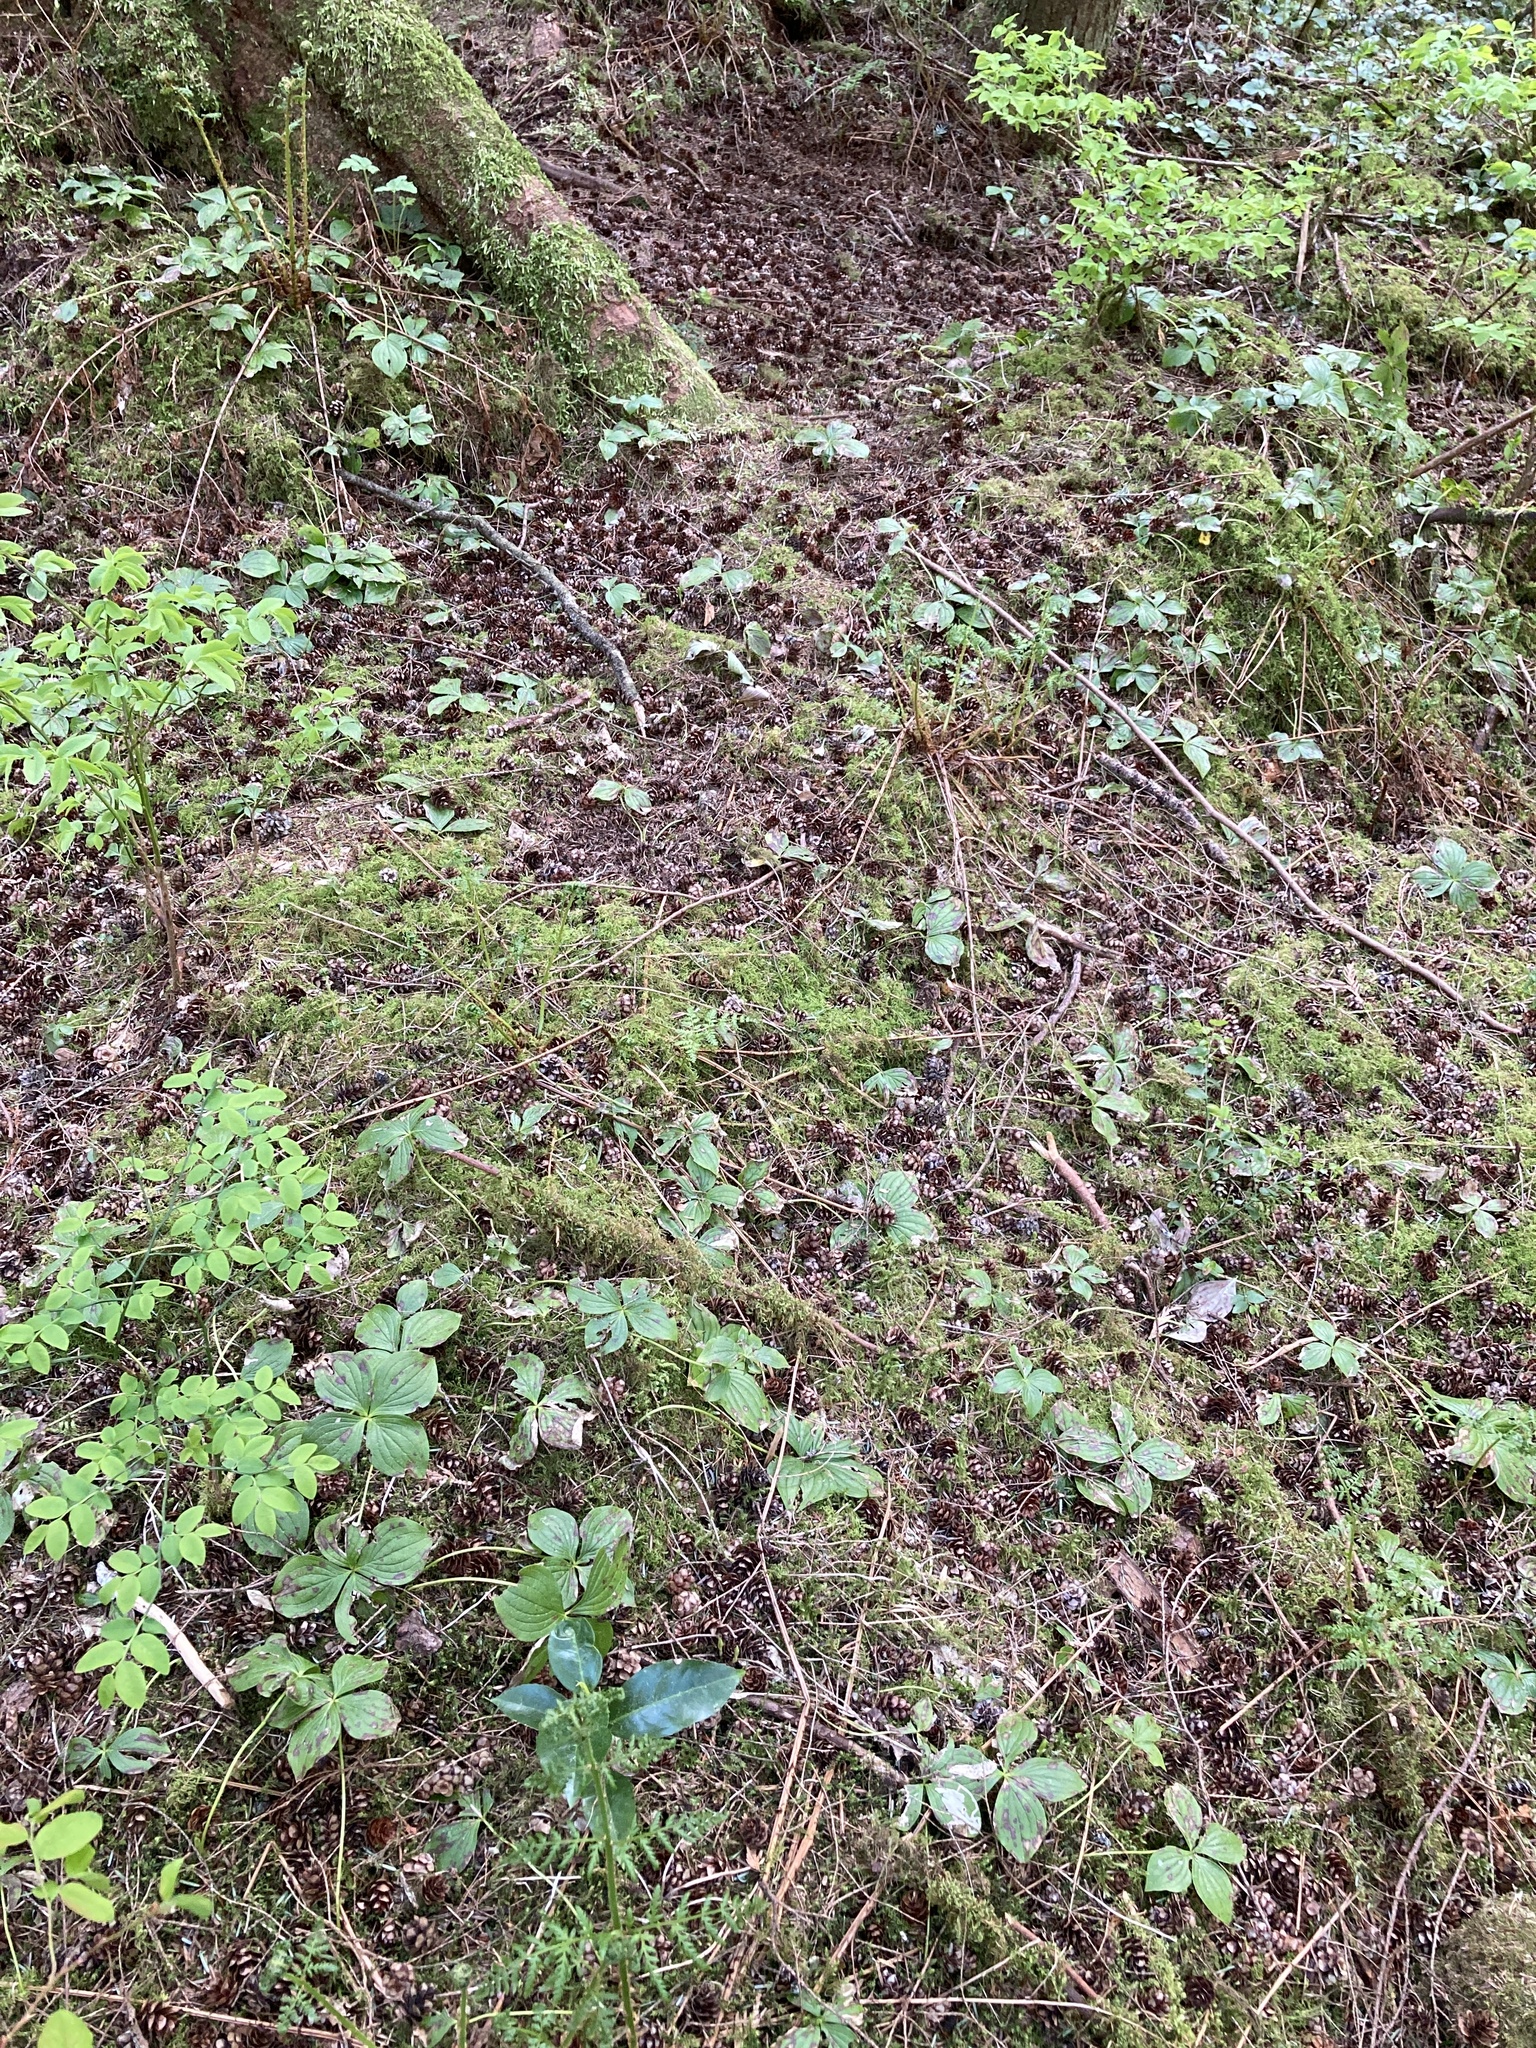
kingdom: Plantae
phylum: Tracheophyta
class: Magnoliopsida
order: Cornales
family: Cornaceae
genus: Cornus
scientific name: Cornus unalaschkensis
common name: Alaska bunchberry
